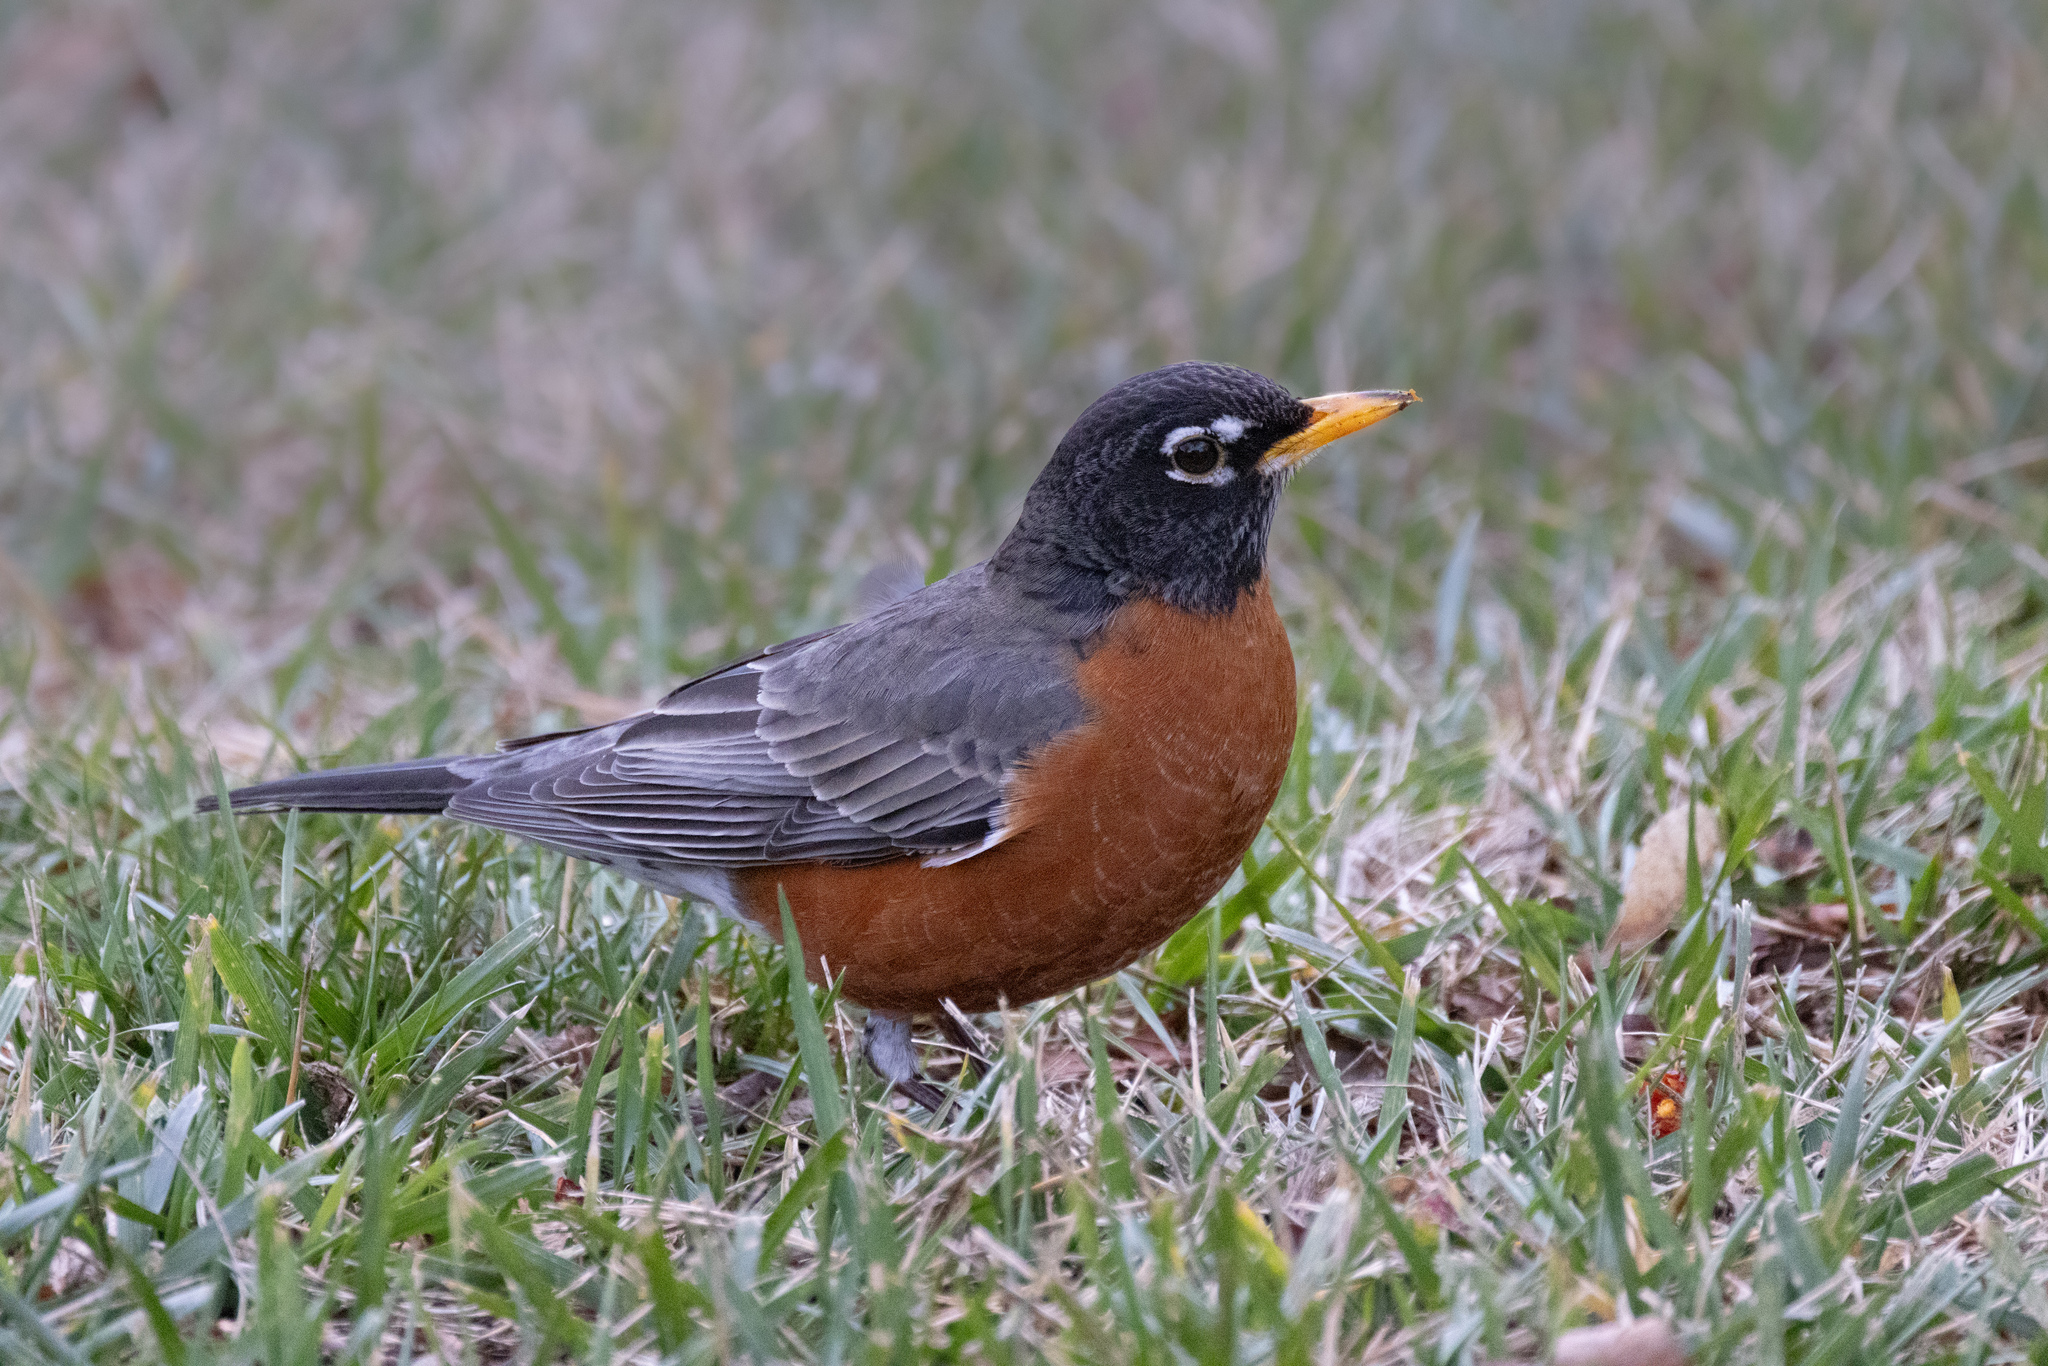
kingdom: Animalia
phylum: Chordata
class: Aves
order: Passeriformes
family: Turdidae
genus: Turdus
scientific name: Turdus migratorius
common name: American robin
